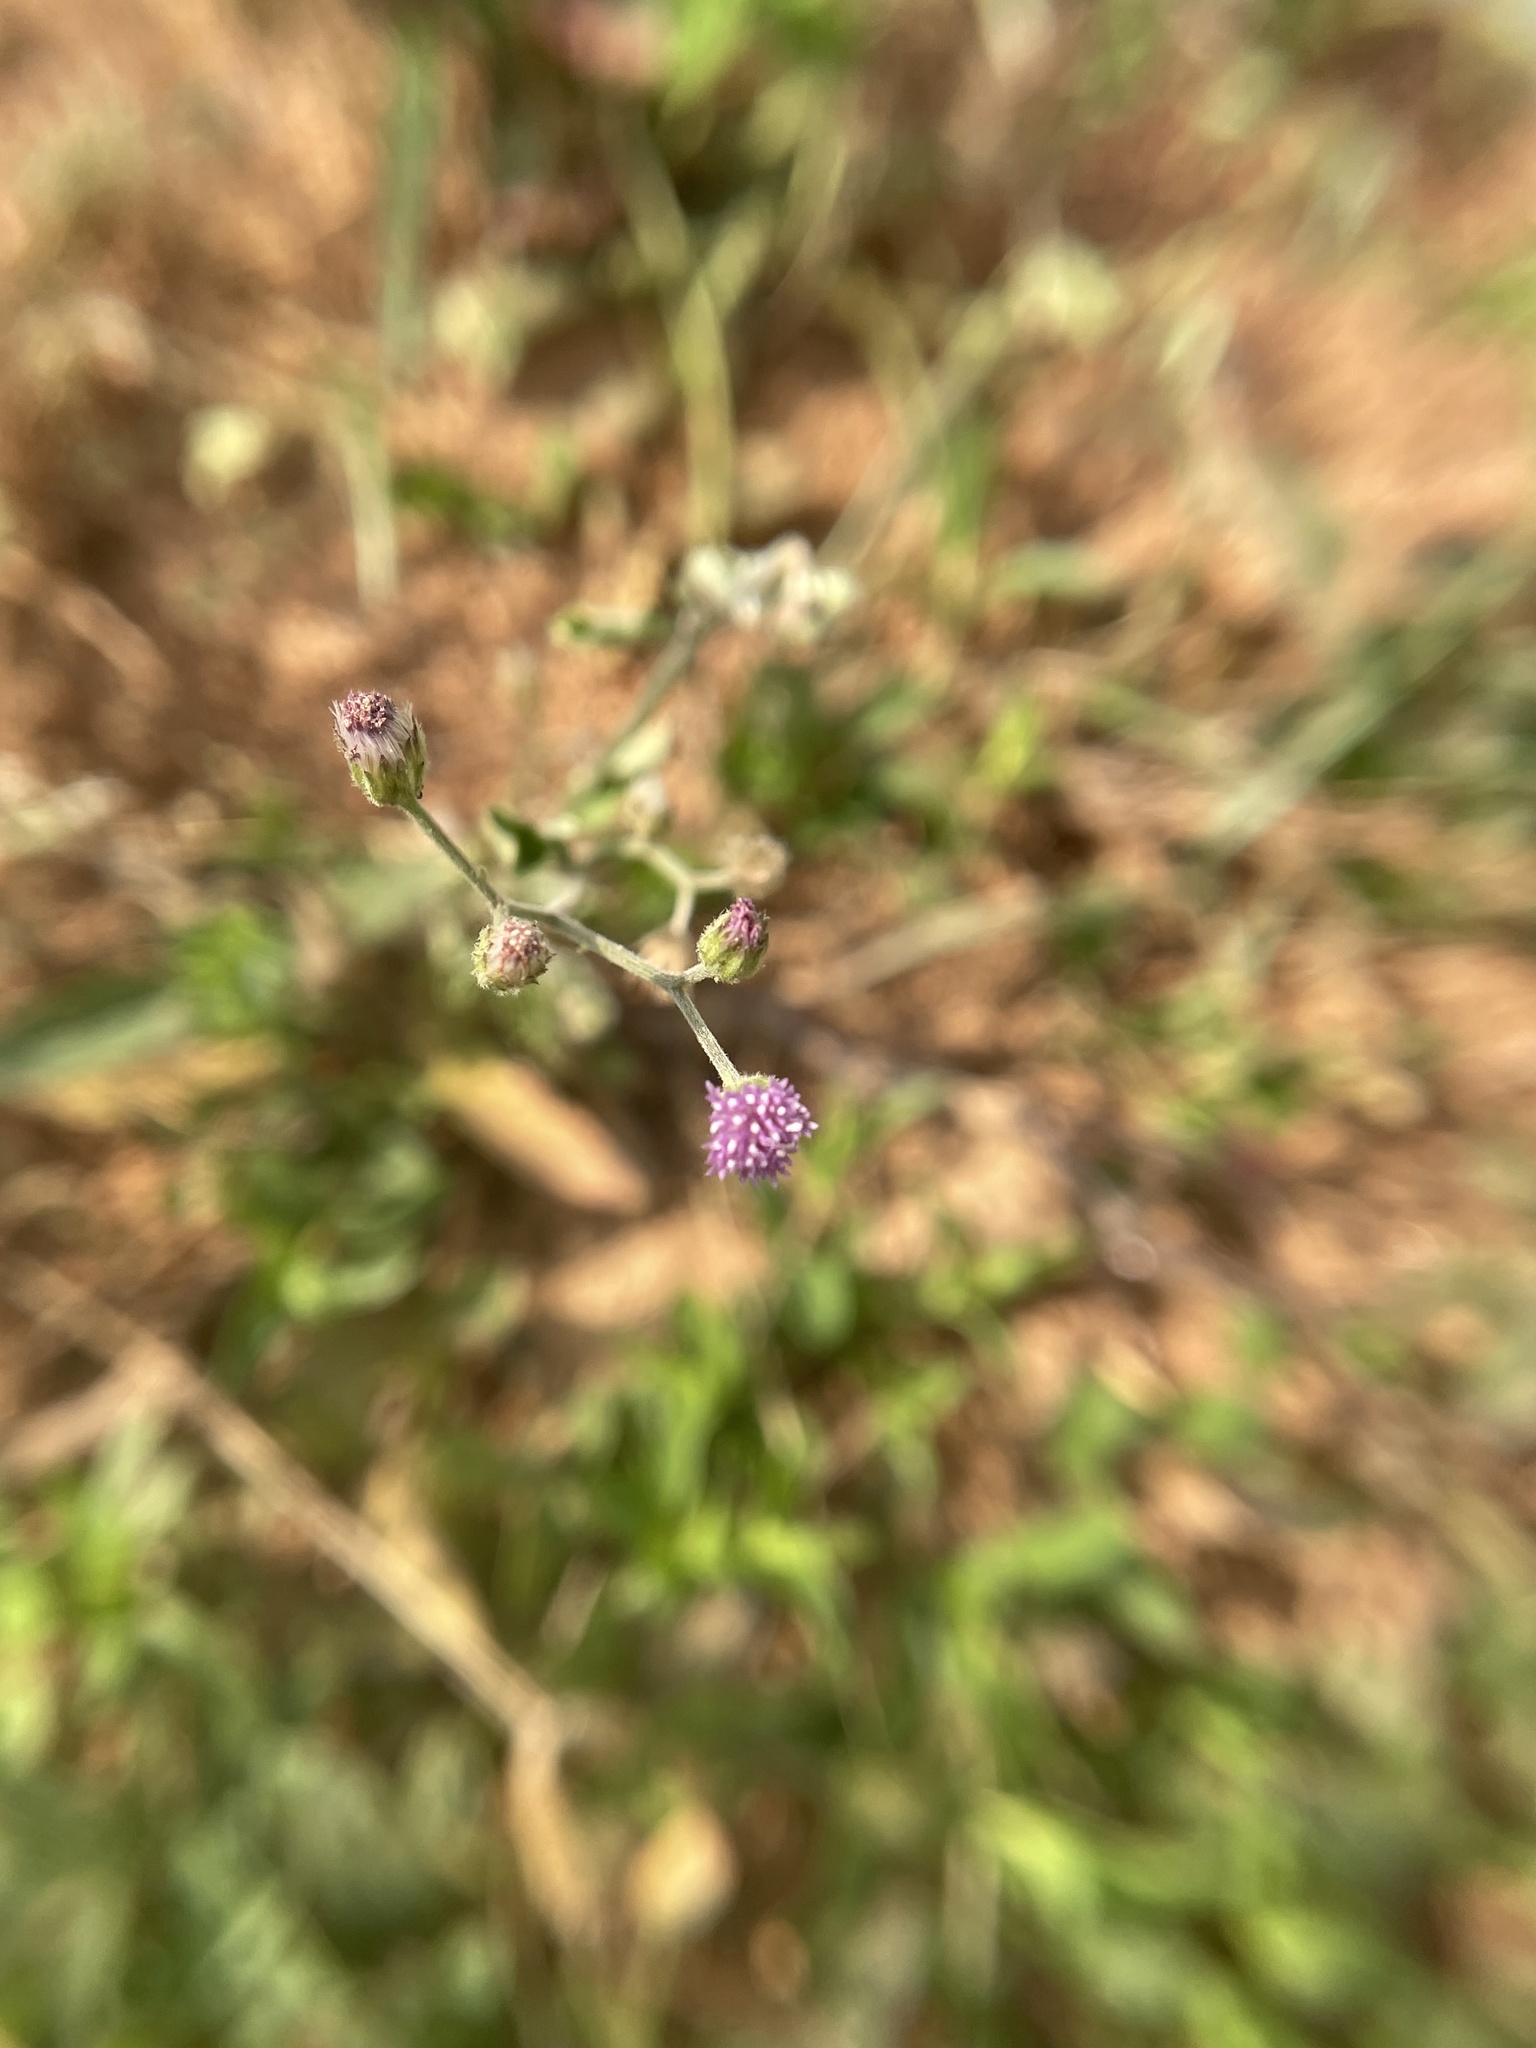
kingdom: Plantae
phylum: Tracheophyta
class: Magnoliopsida
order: Asterales
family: Asteraceae
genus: Cyanthillium
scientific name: Cyanthillium cinereum
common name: Little ironweed
